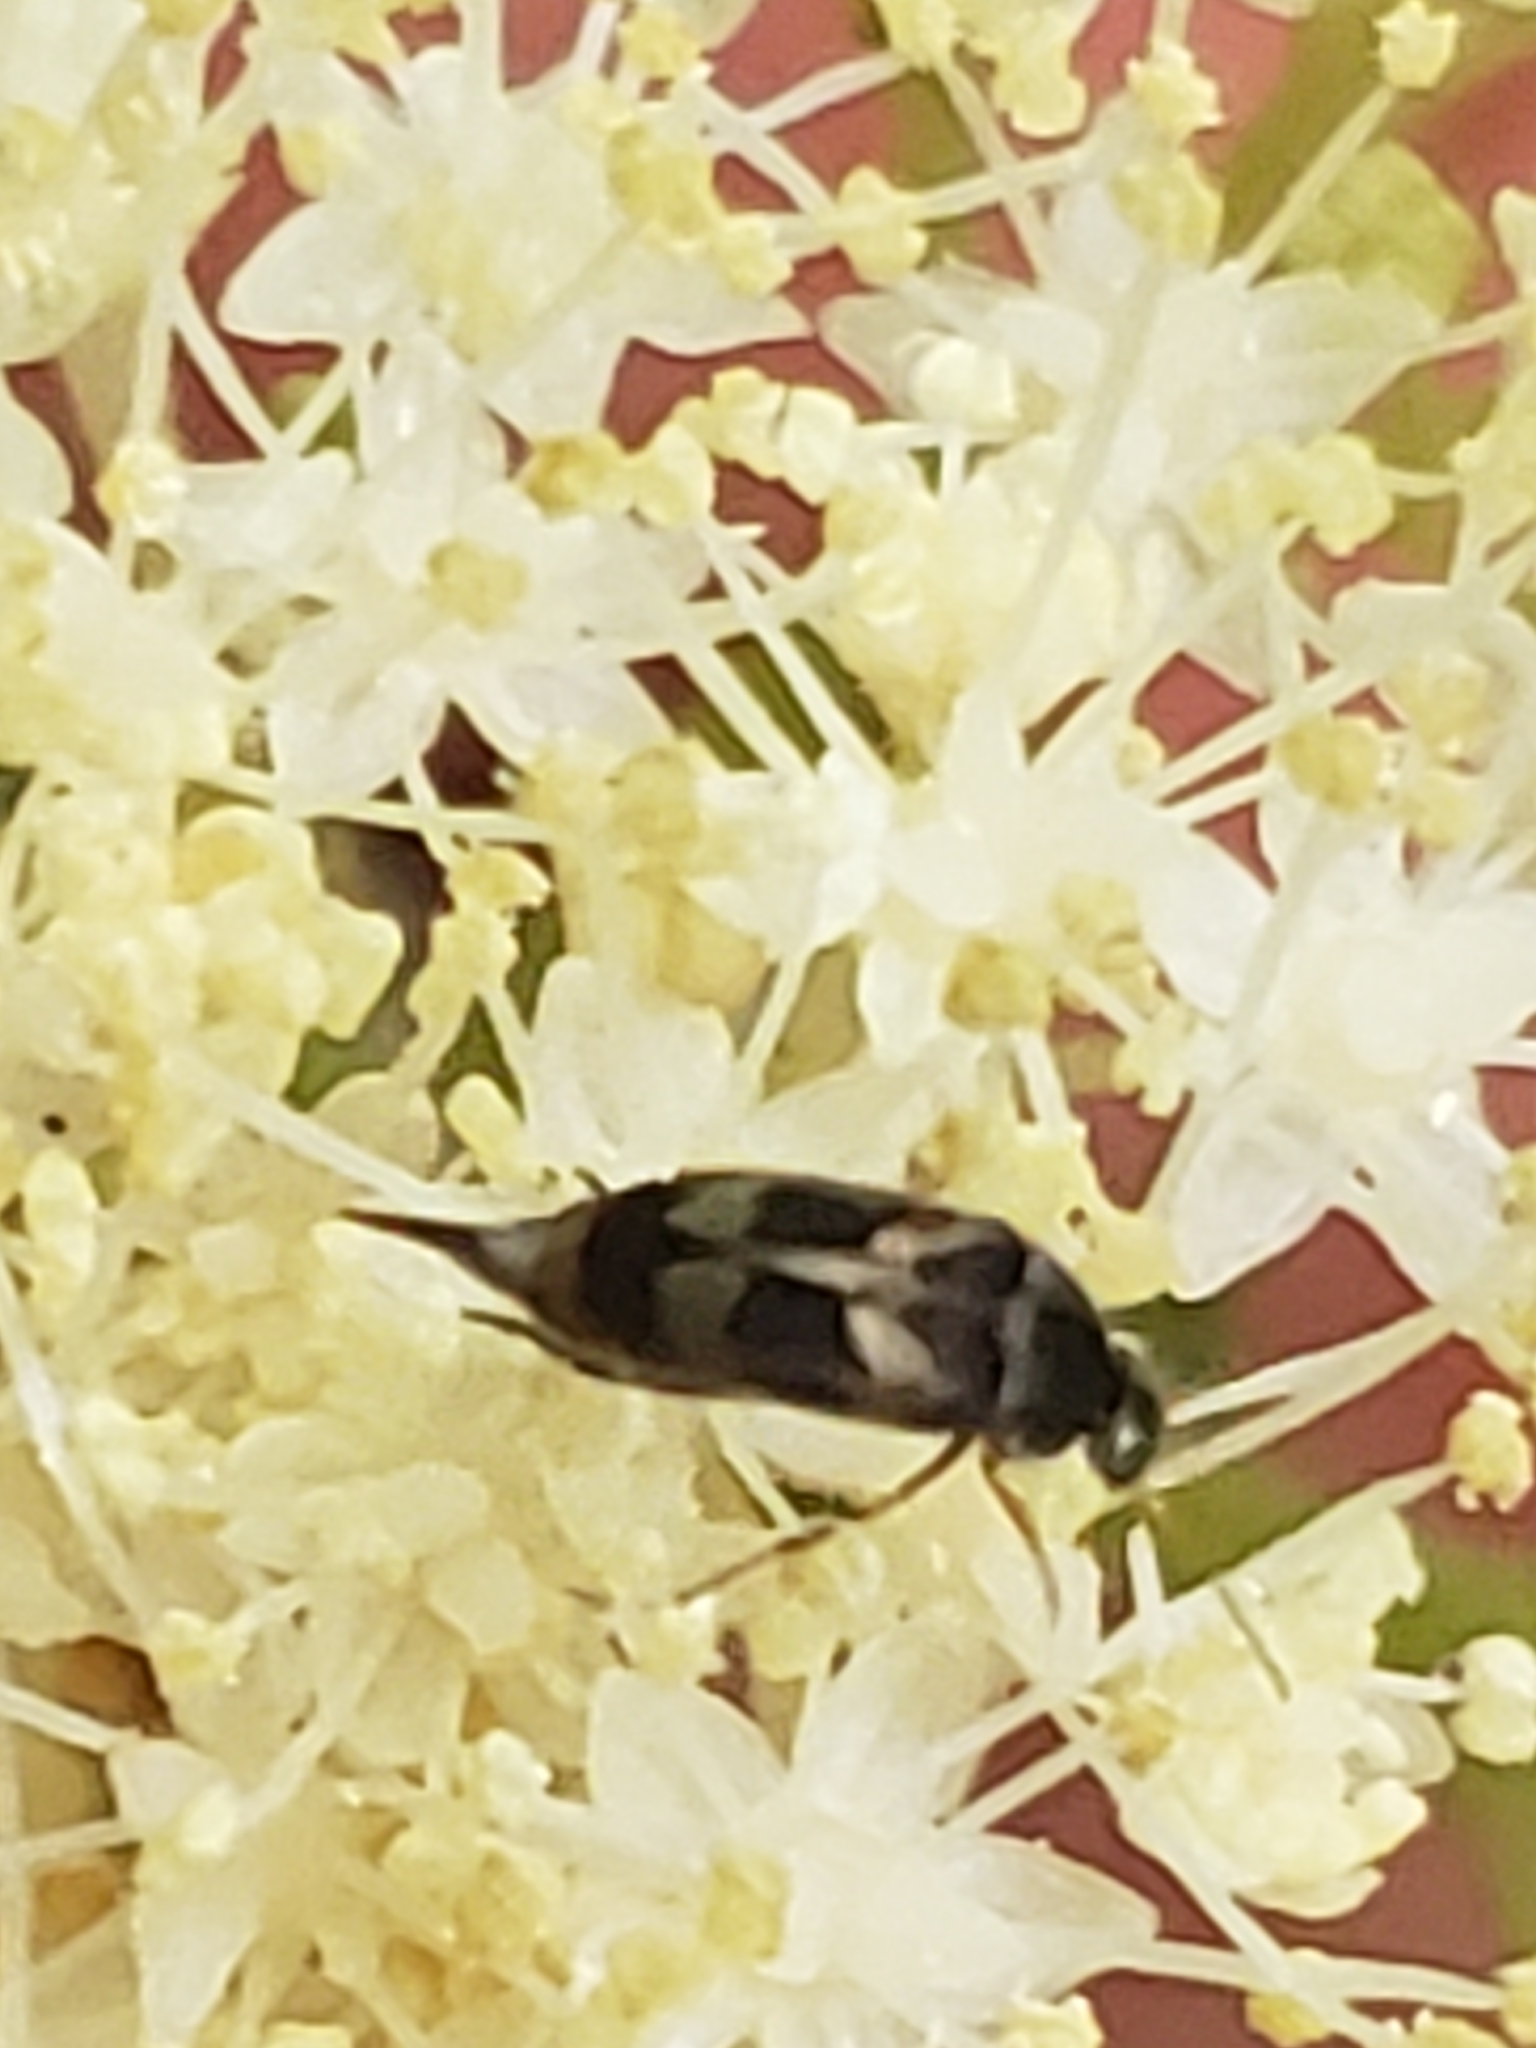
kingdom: Animalia
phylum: Arthropoda
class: Insecta
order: Coleoptera
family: Mordellidae
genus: Falsomordellistena
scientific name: Falsomordellistena hebraica
